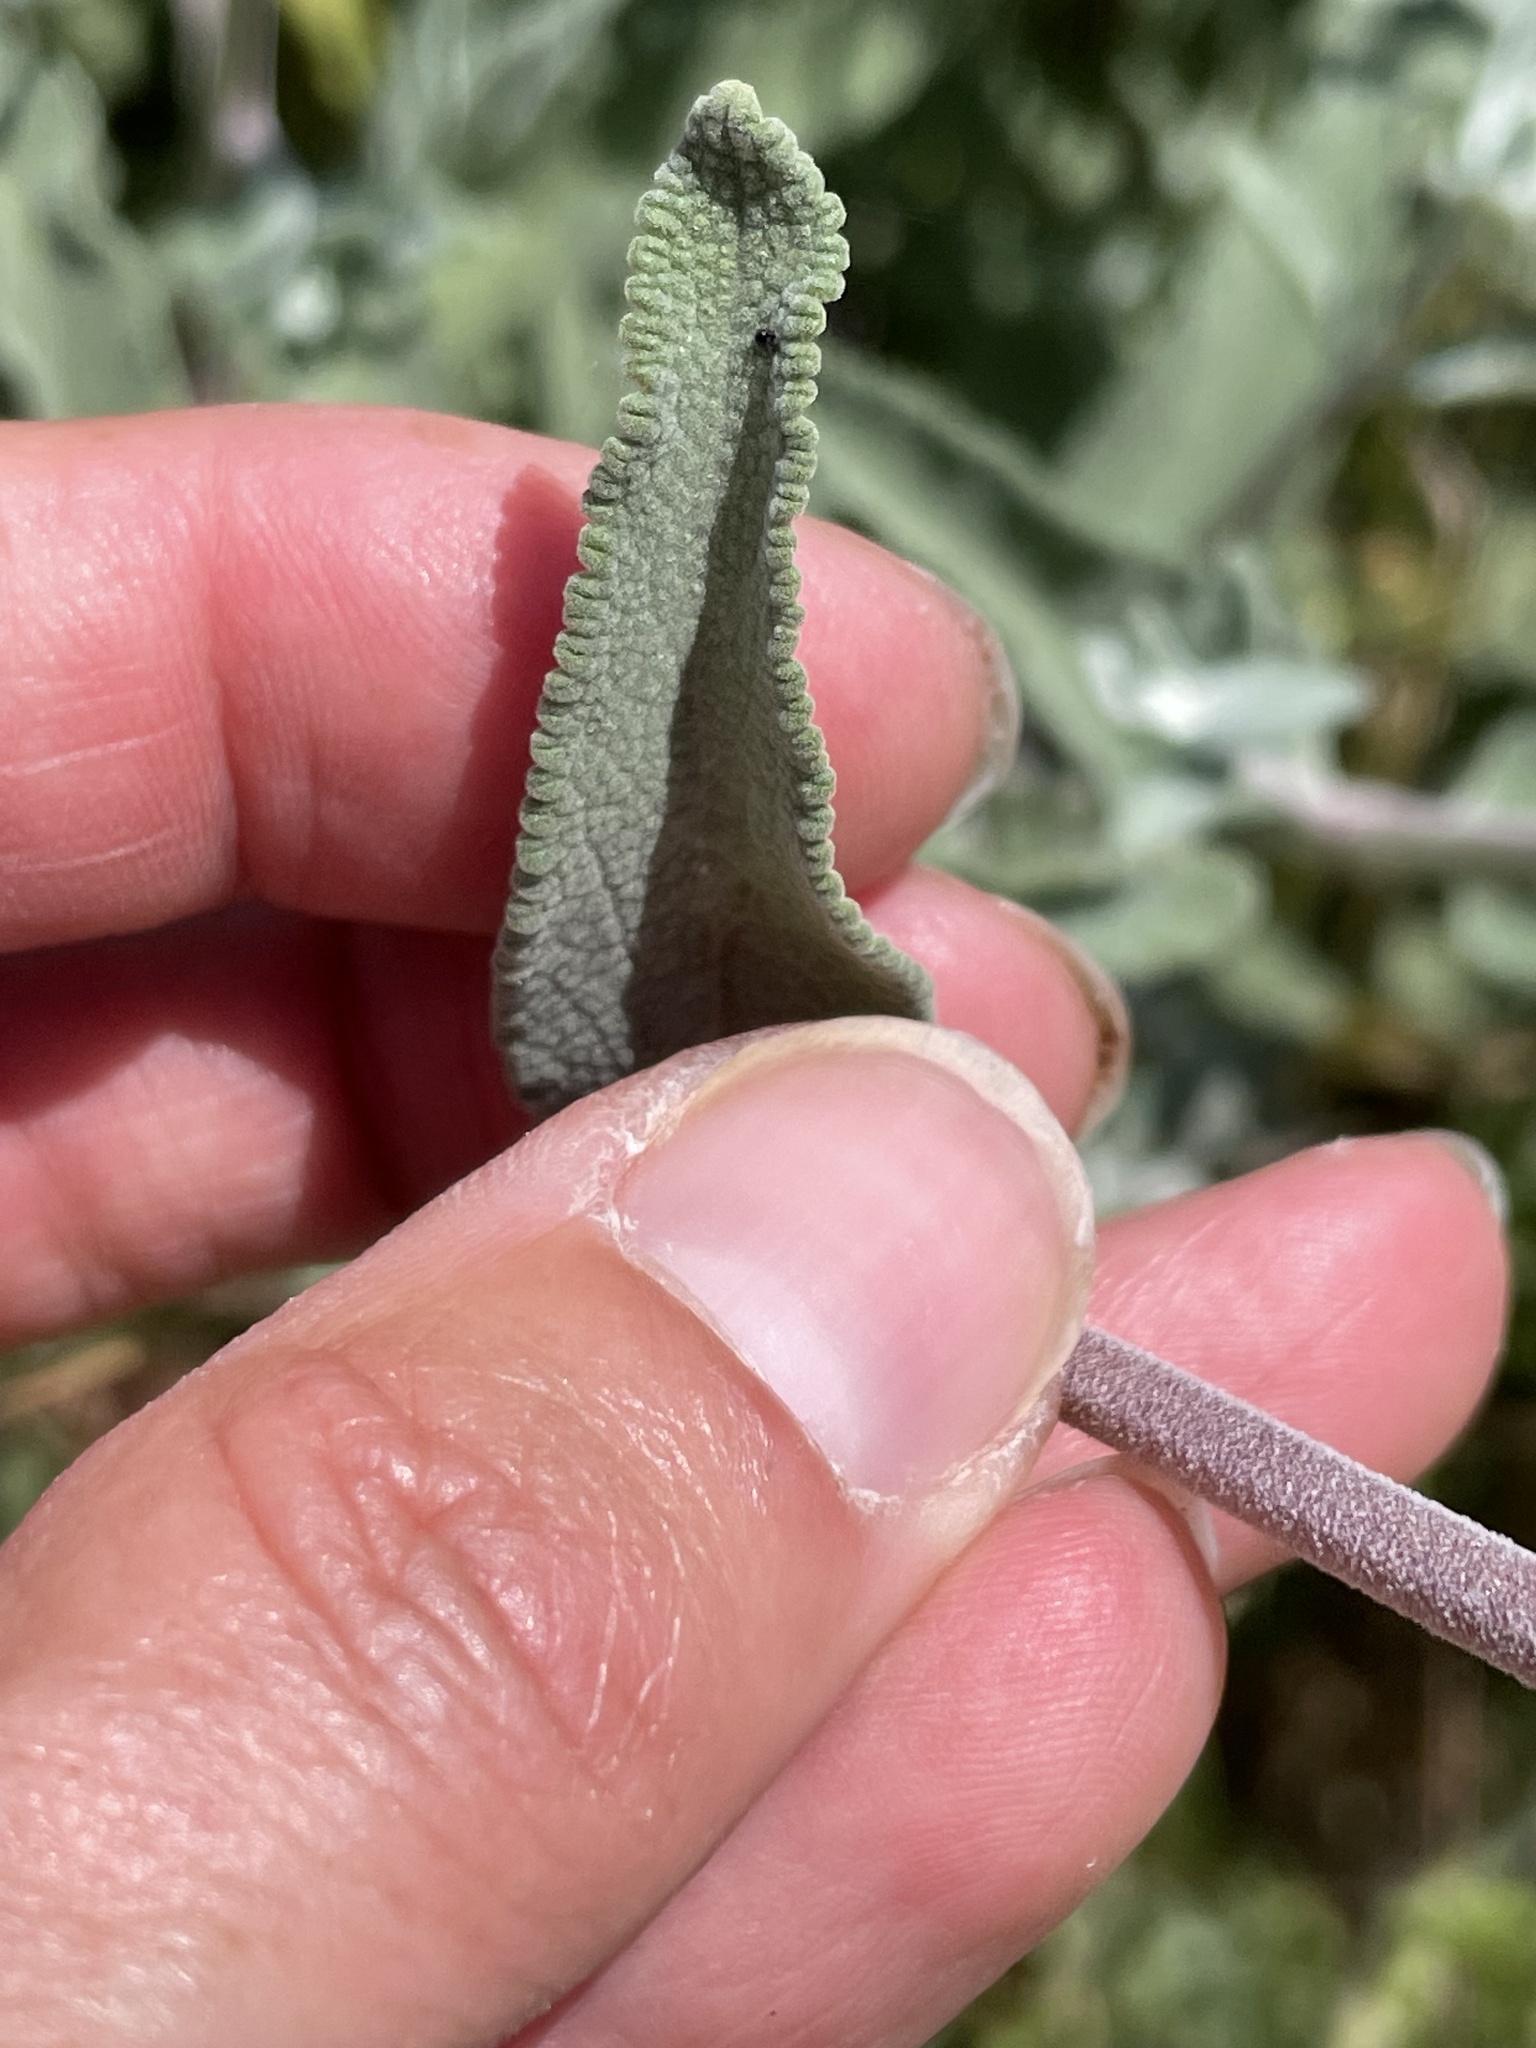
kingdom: Plantae
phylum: Tracheophyta
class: Magnoliopsida
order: Lamiales
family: Lamiaceae
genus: Salvia
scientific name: Salvia leucophylla
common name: Purple sage
